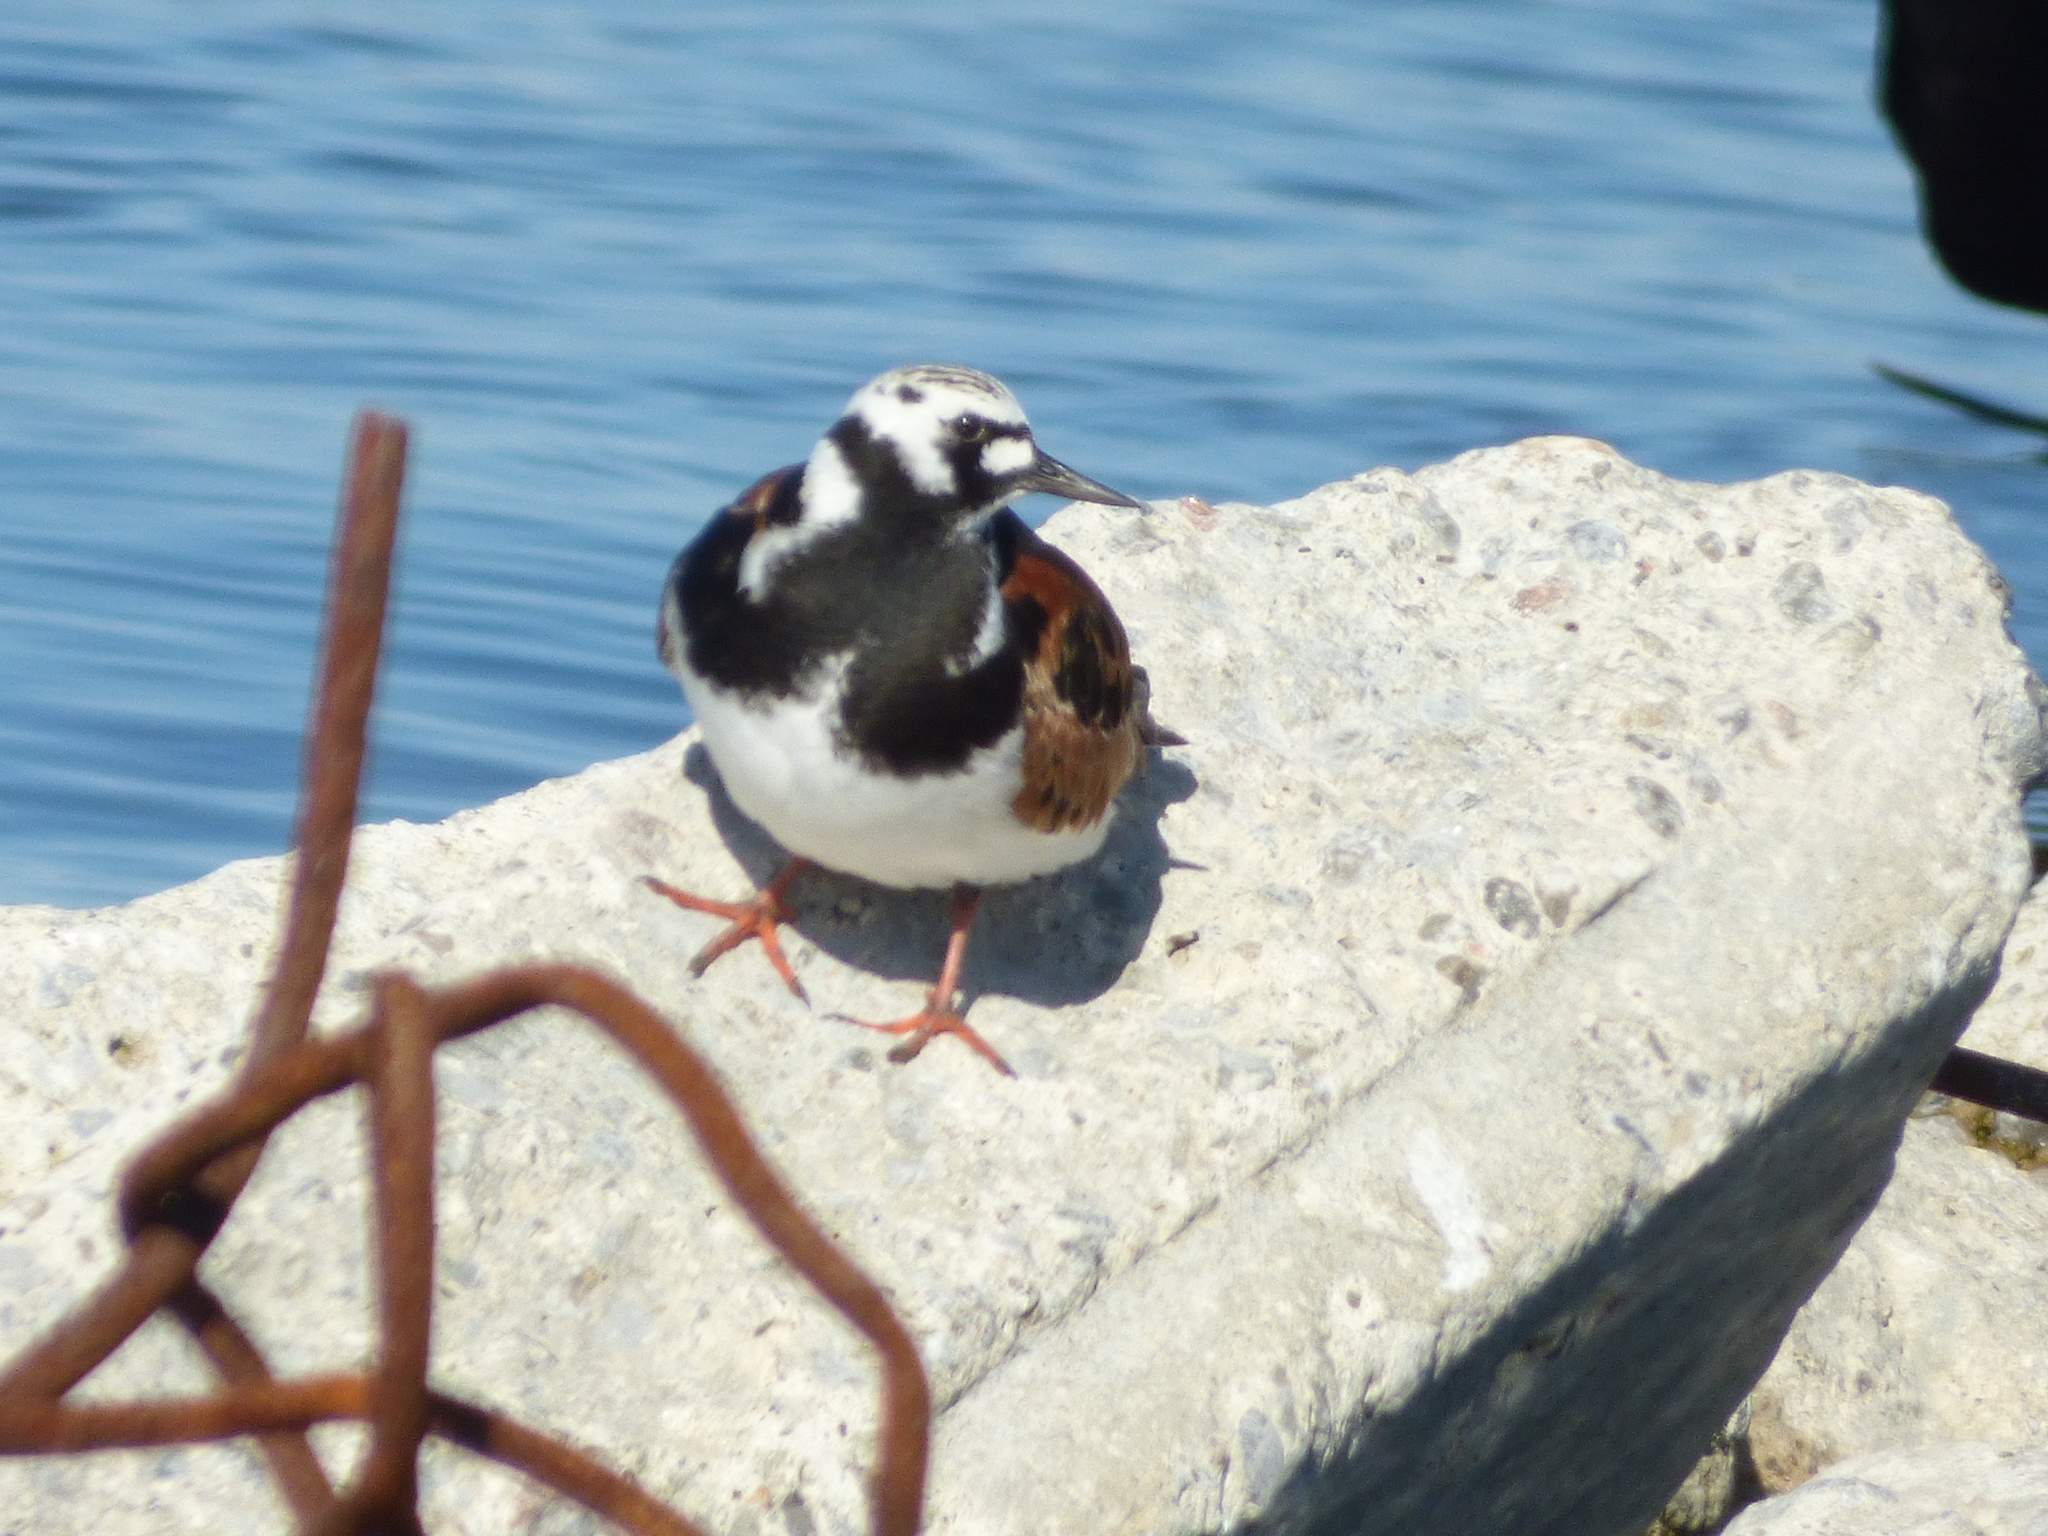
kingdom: Animalia
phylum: Chordata
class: Aves
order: Charadriiformes
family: Scolopacidae
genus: Arenaria
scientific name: Arenaria interpres
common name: Ruddy turnstone
